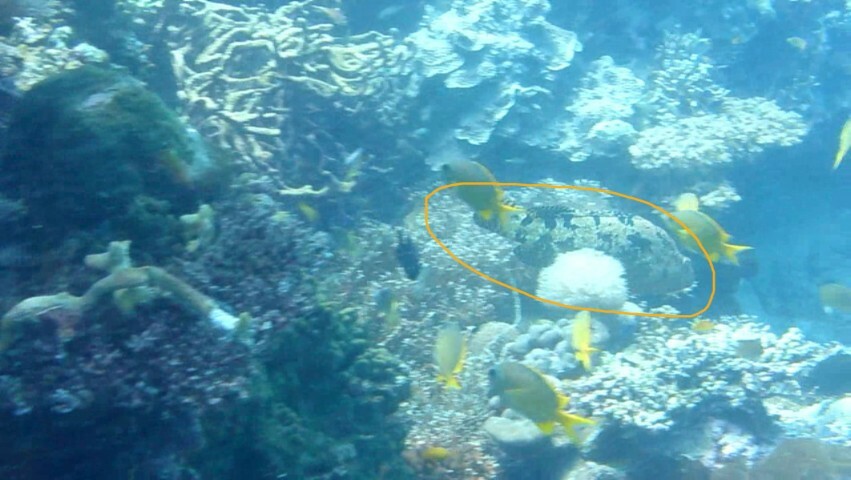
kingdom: Animalia
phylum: Chordata
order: Perciformes
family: Serranidae
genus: Epinephelus
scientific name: Epinephelus fuscoguttatus
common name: Brown-marbled grouper
